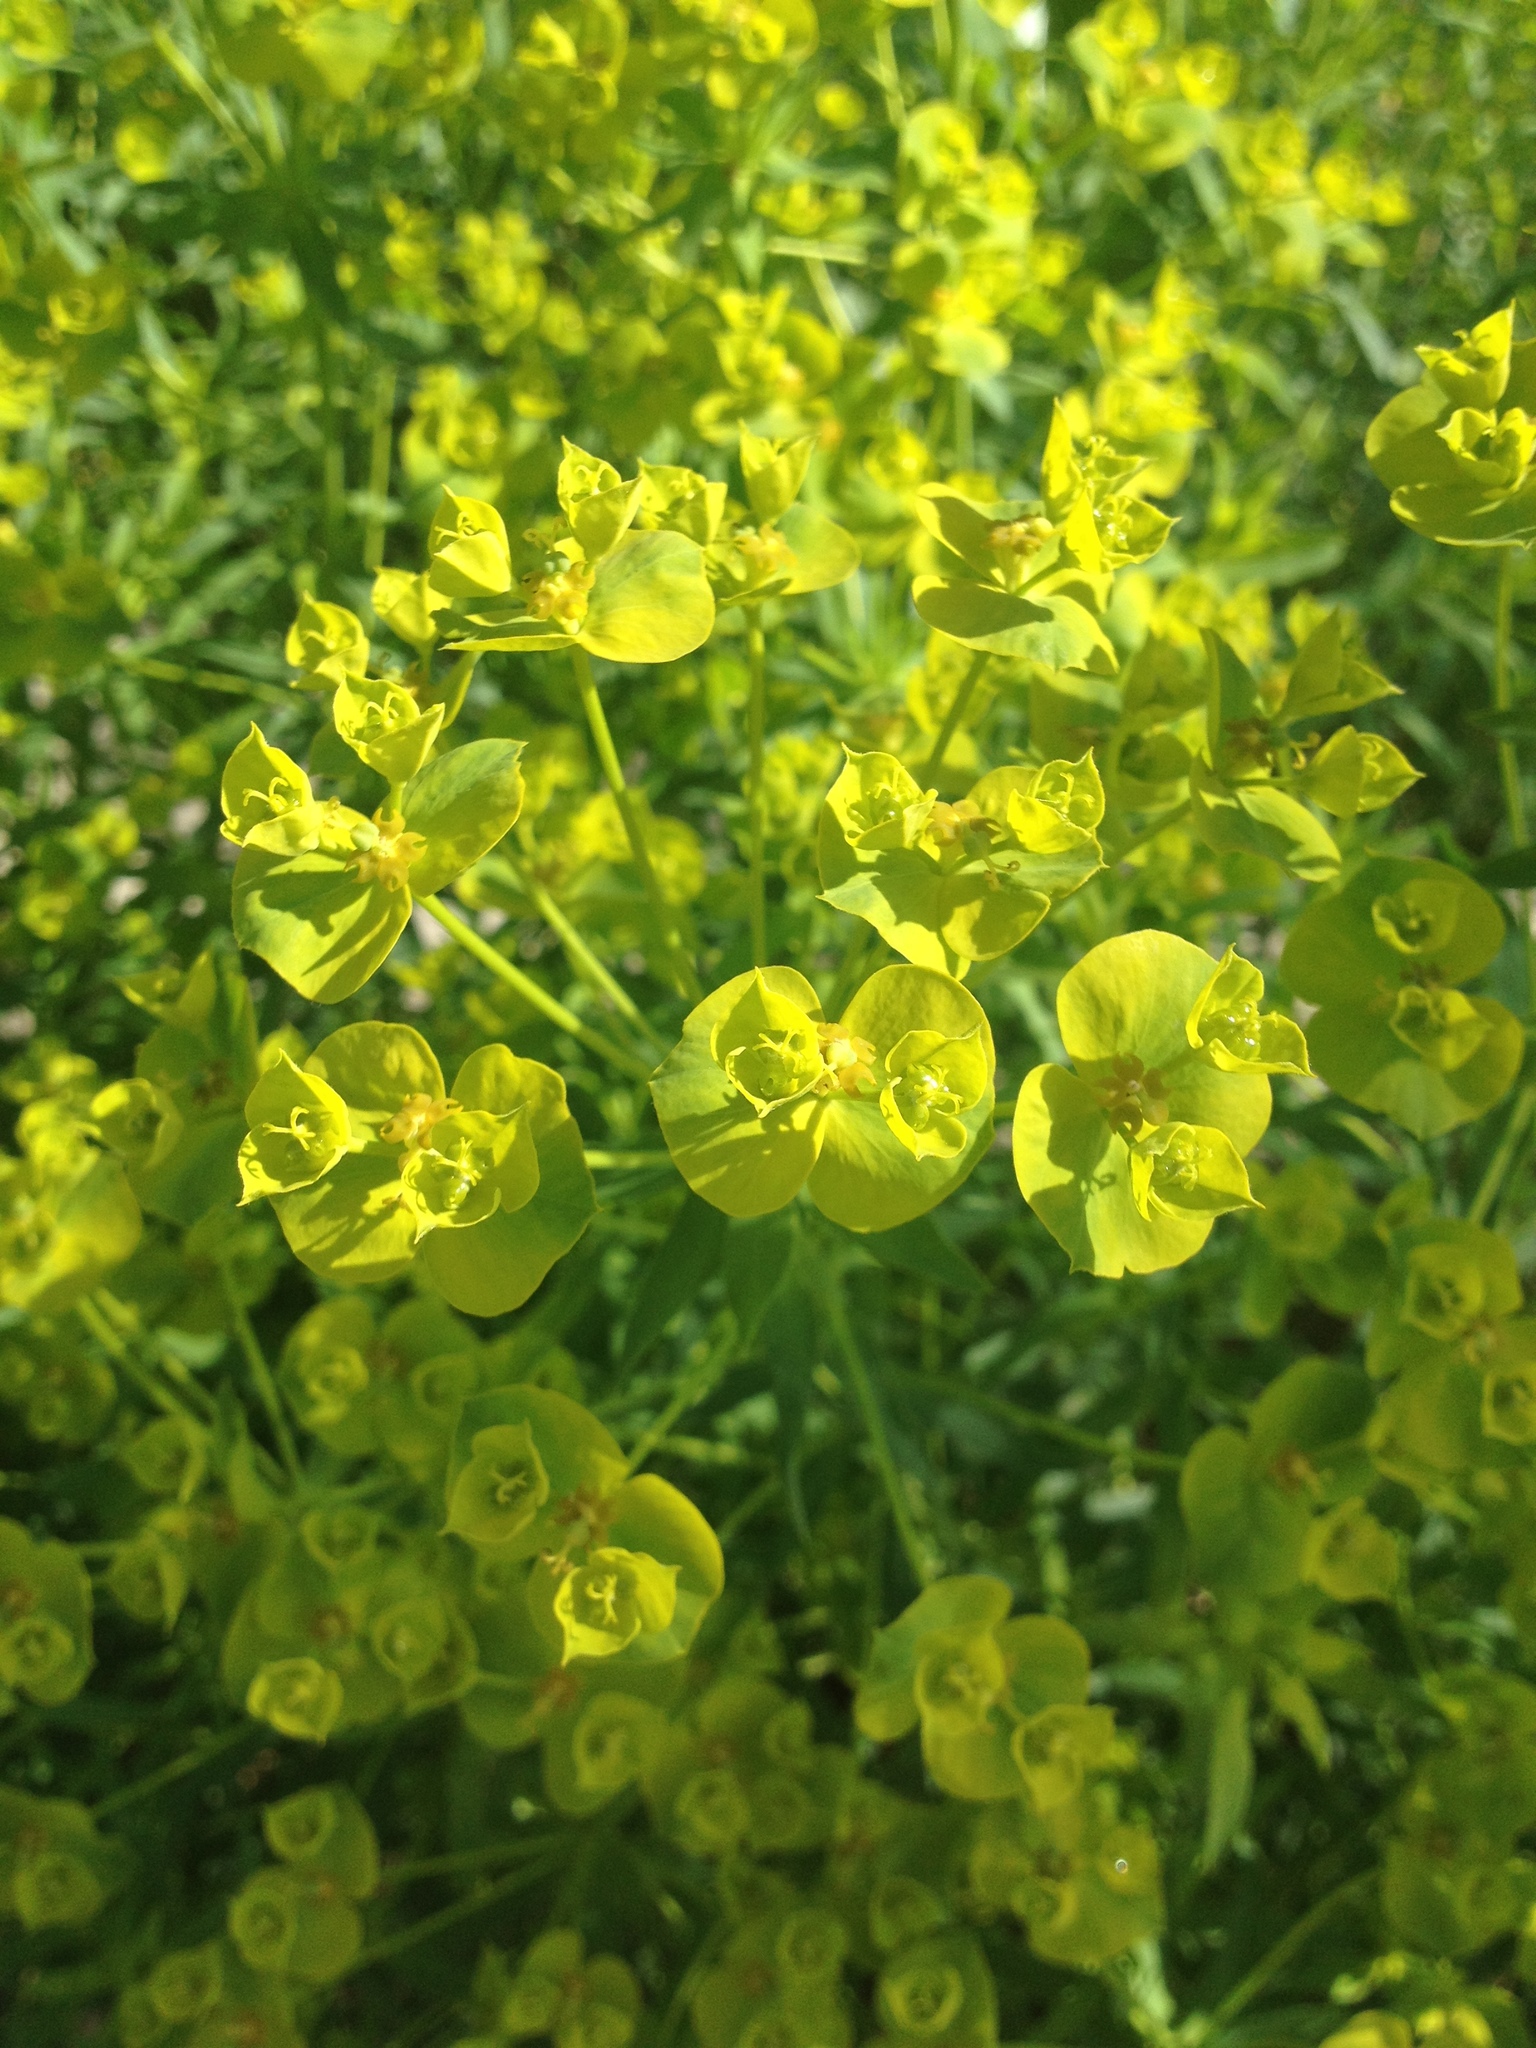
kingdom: Plantae
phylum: Tracheophyta
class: Magnoliopsida
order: Malpighiales
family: Euphorbiaceae
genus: Euphorbia
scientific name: Euphorbia virgata
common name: Leafy spurge
